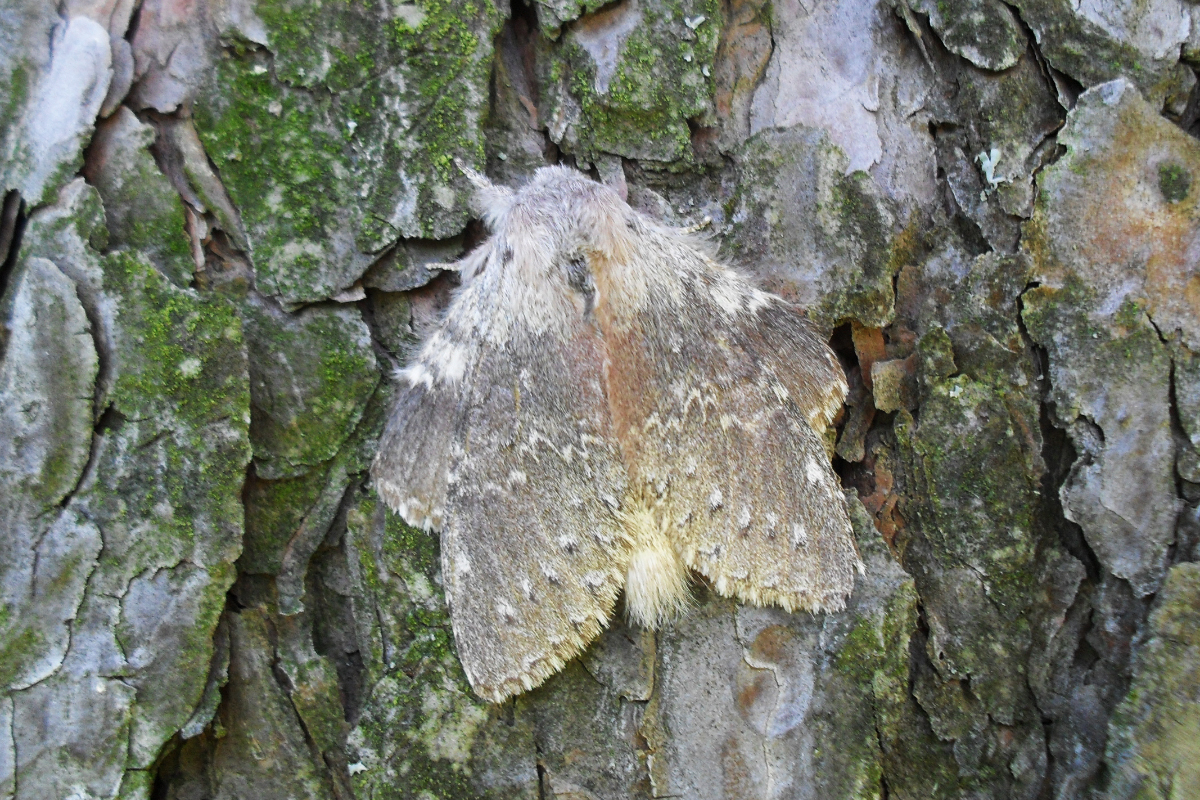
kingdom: Animalia
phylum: Arthropoda
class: Insecta
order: Lepidoptera
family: Notodontidae
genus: Stauropus
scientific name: Stauropus fagi
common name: Lobster moth
